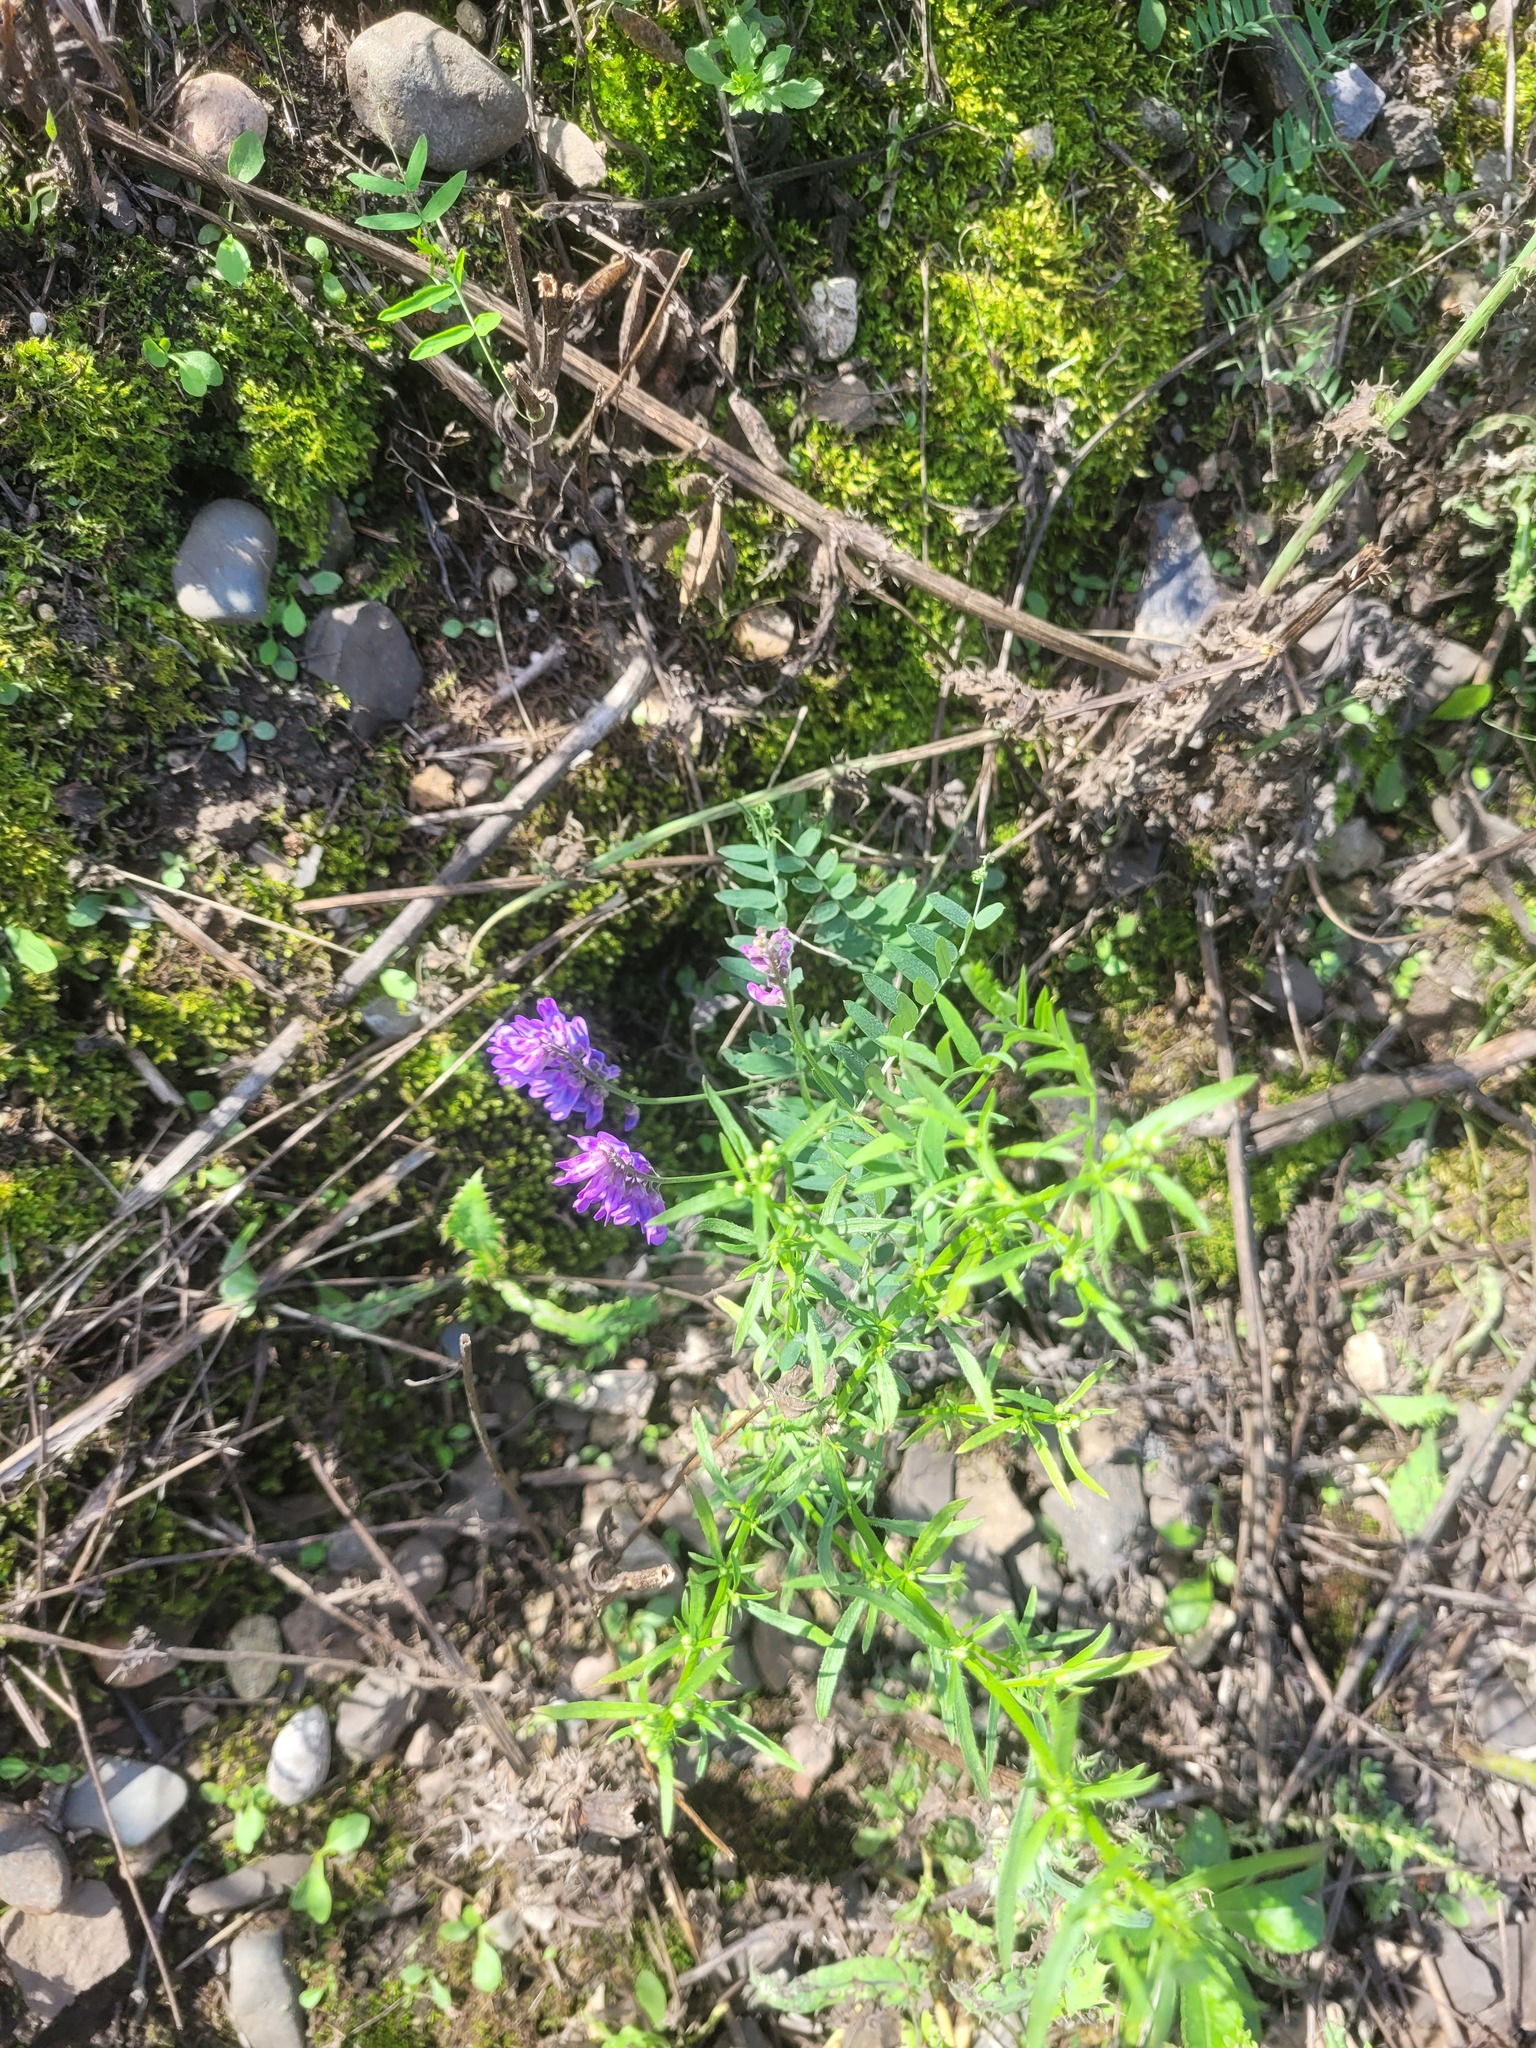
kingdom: Plantae
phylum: Tracheophyta
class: Magnoliopsida
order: Fabales
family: Fabaceae
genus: Vicia
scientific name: Vicia cracca
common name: Bird vetch
